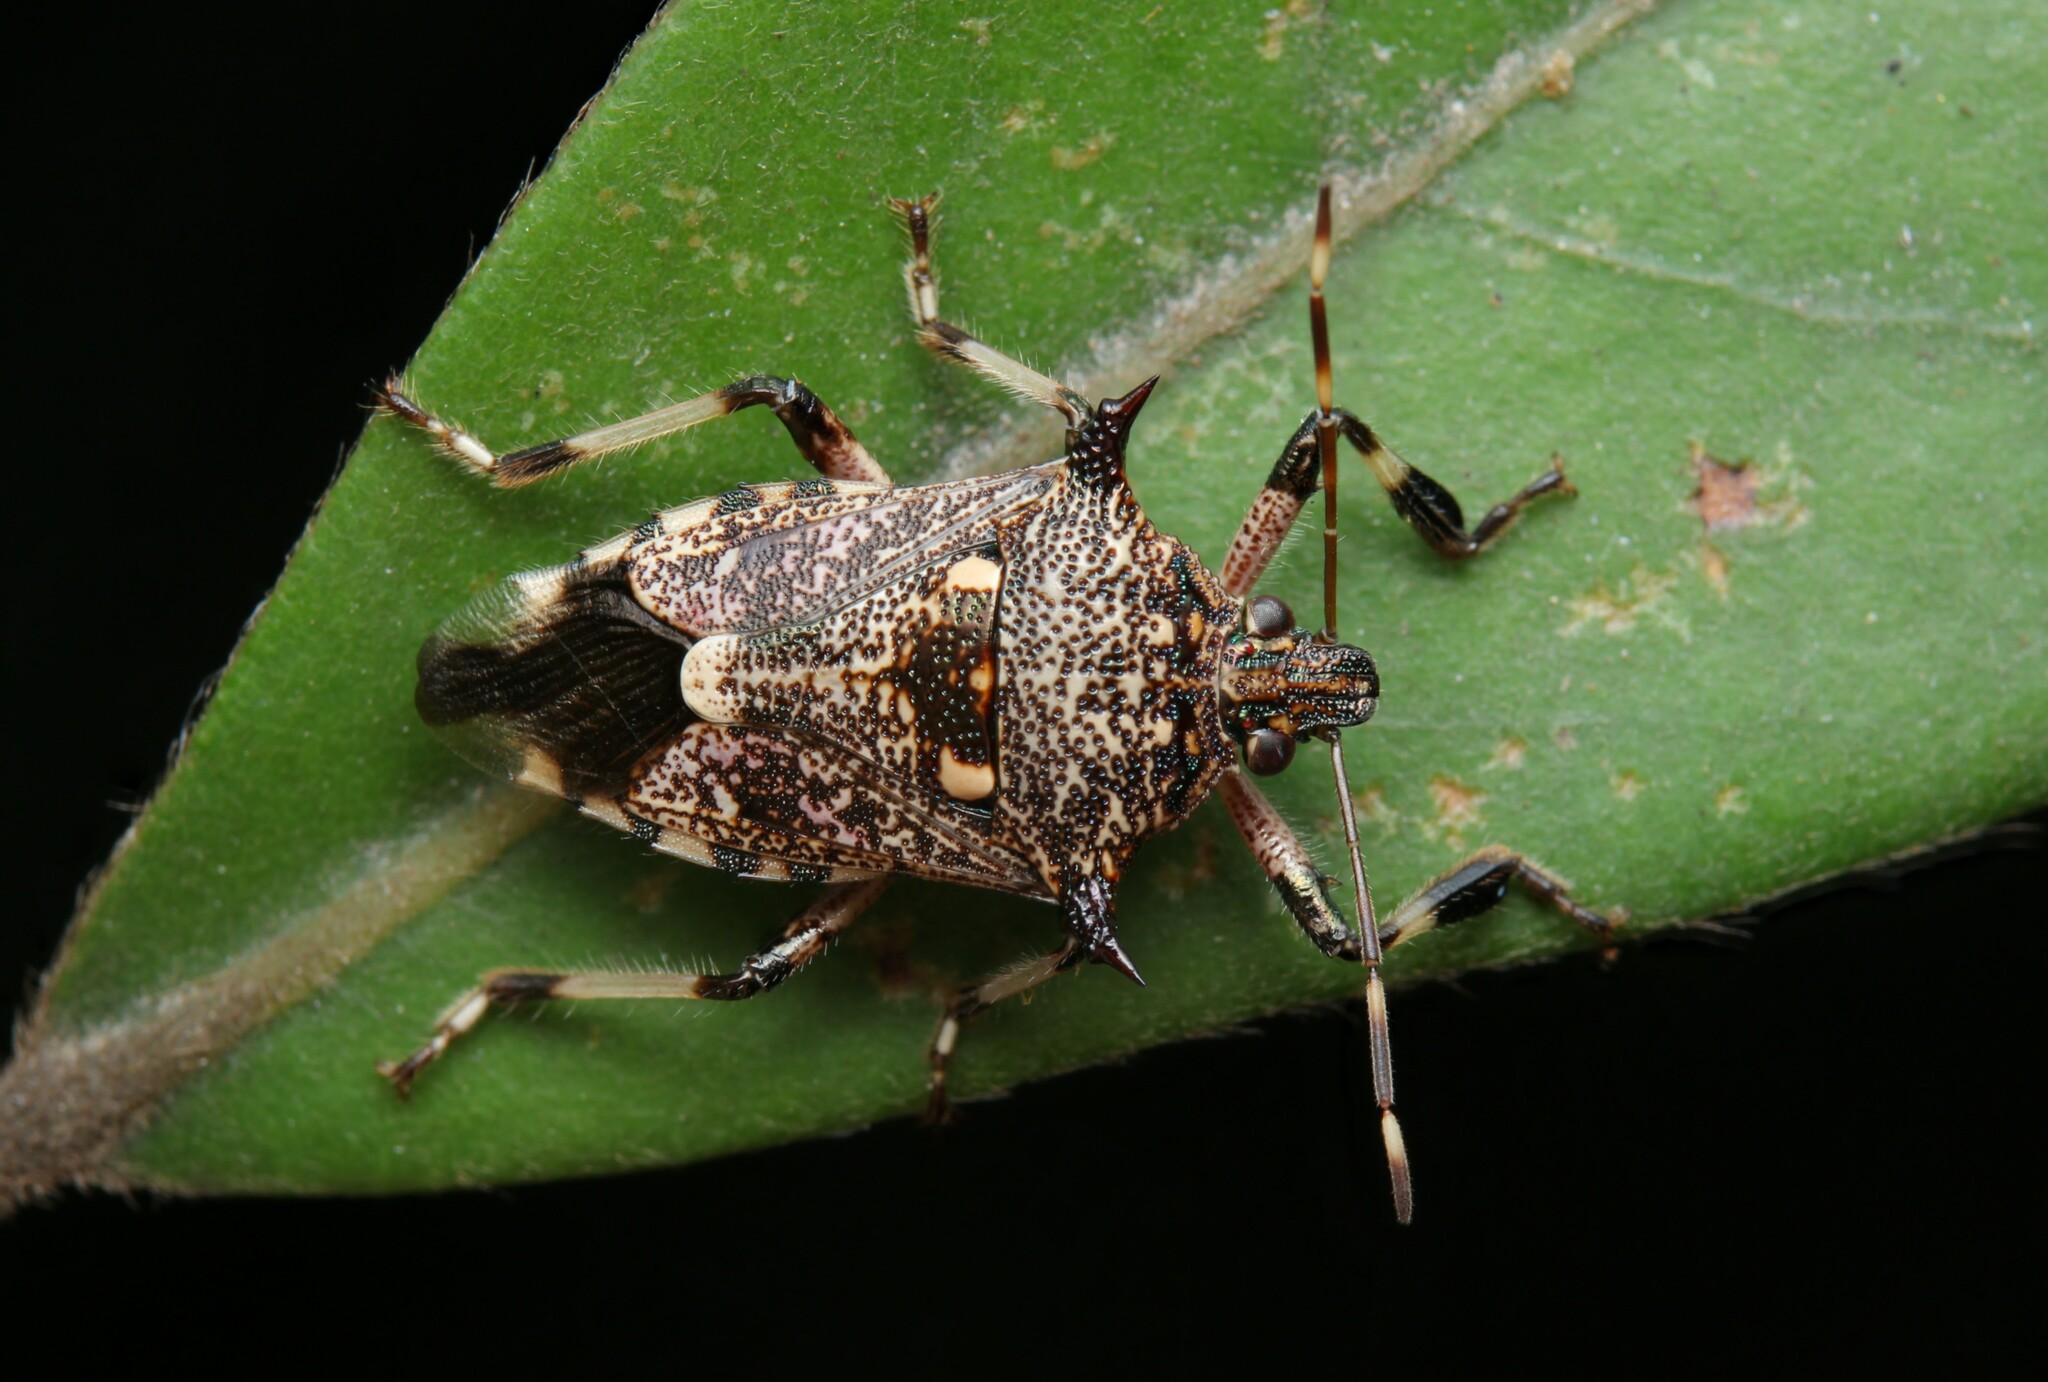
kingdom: Animalia
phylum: Arthropoda
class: Insecta
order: Hemiptera
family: Pentatomidae
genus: Eocanthecoma
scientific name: Eocanthecoma furcellata
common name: Stink bug
